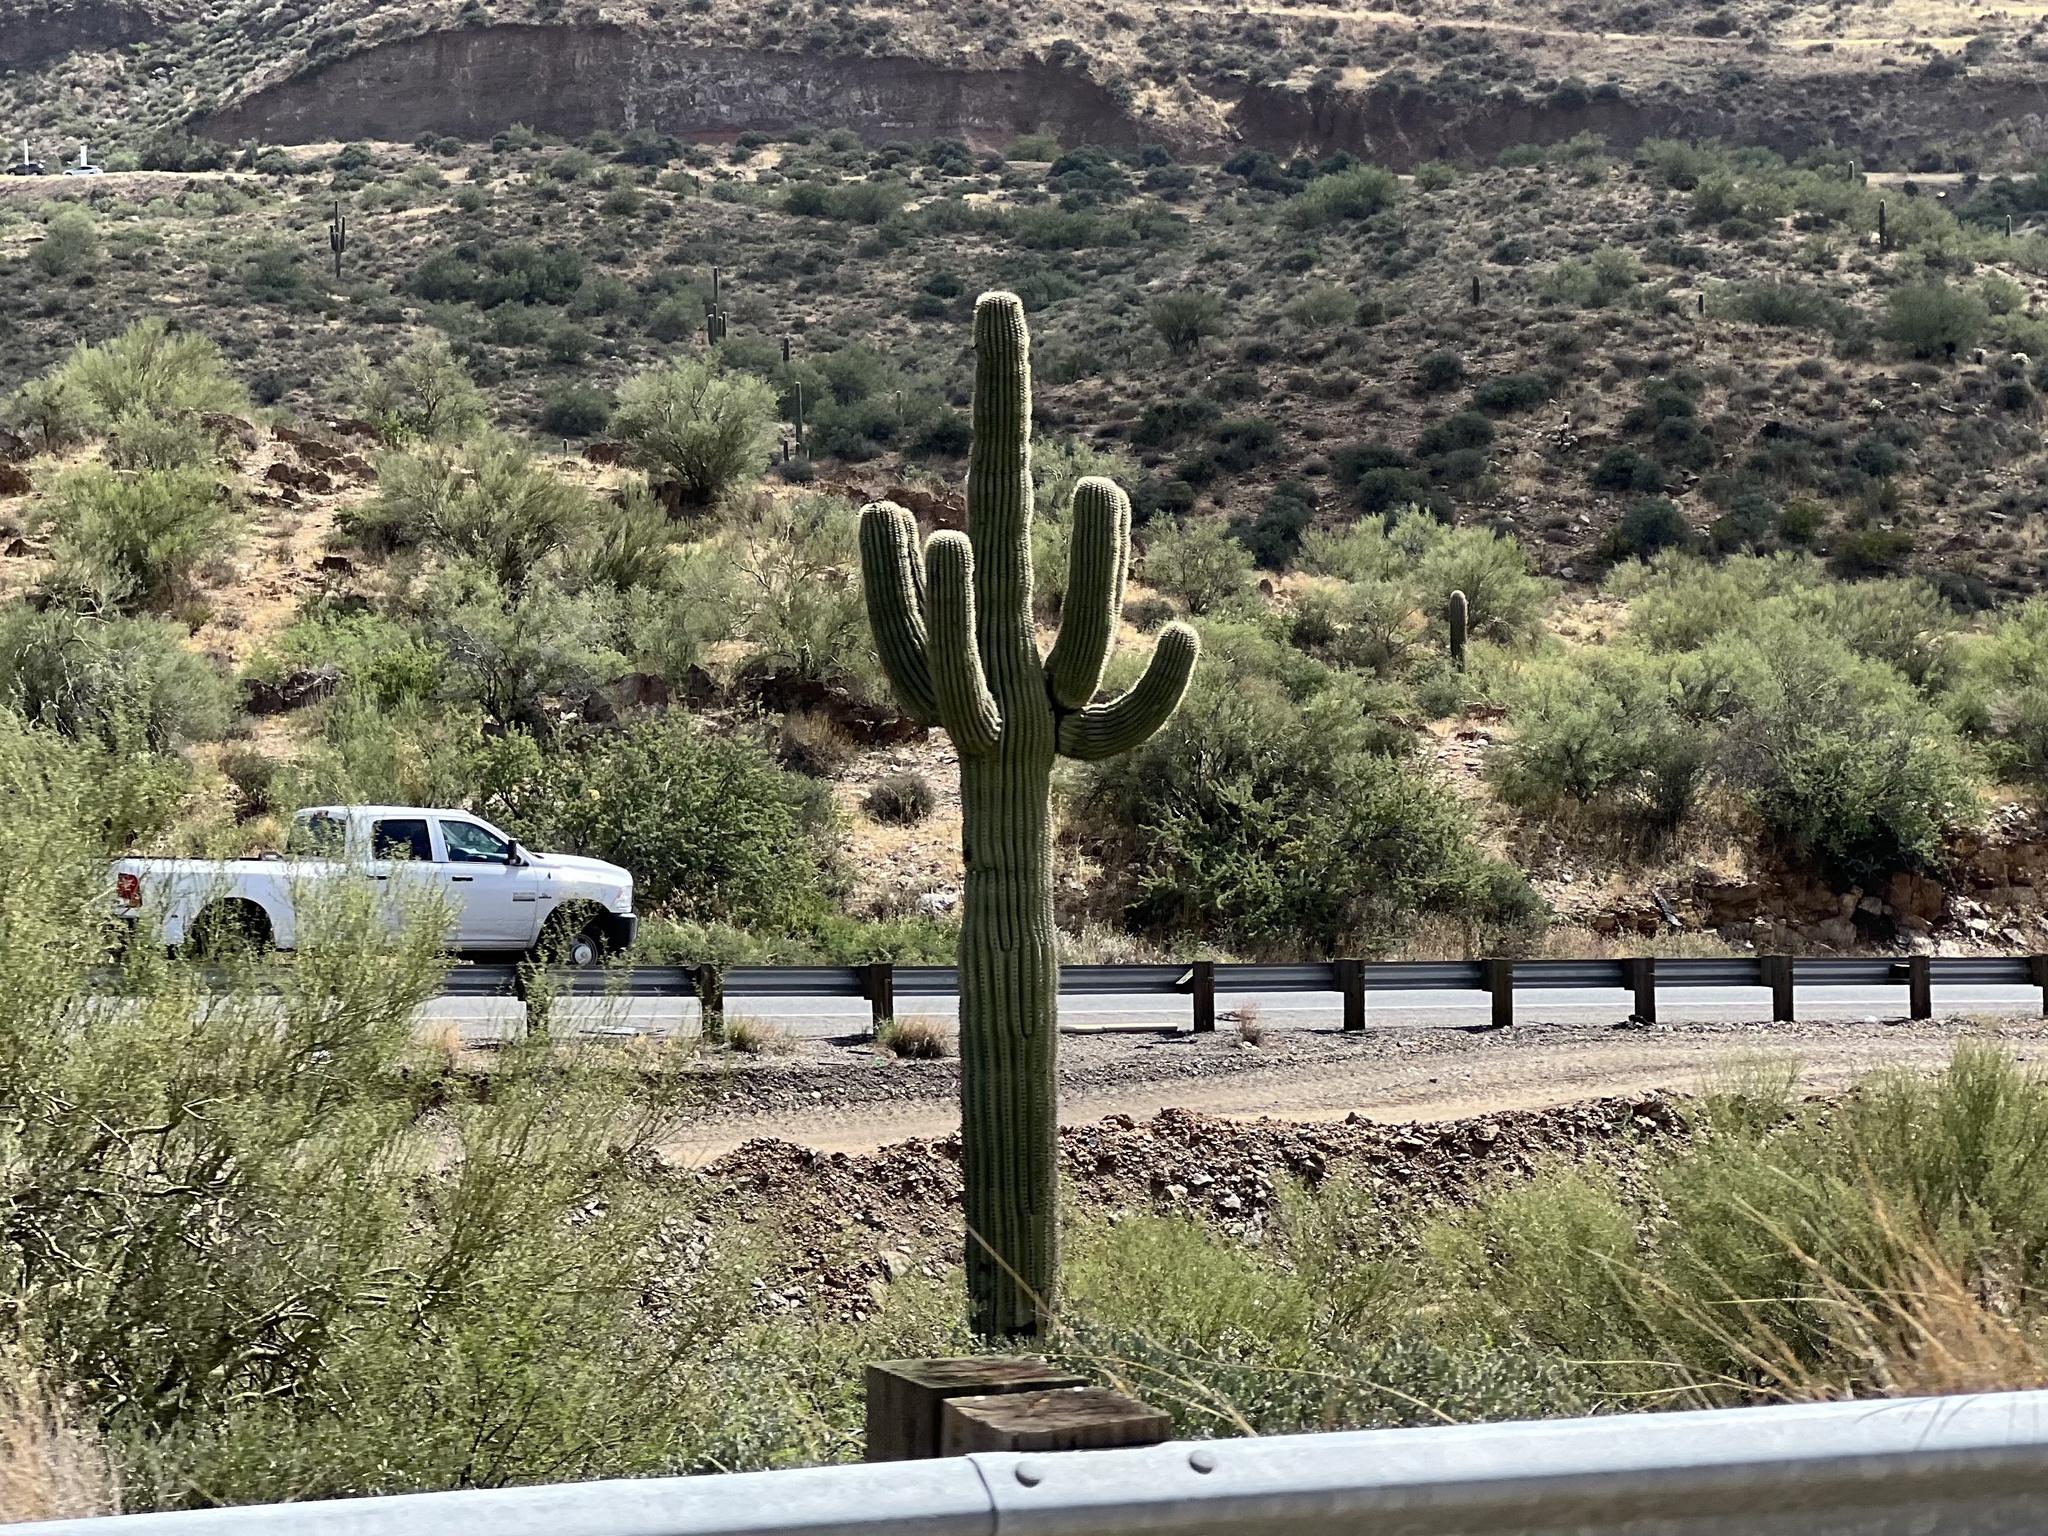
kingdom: Plantae
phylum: Tracheophyta
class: Magnoliopsida
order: Caryophyllales
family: Cactaceae
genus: Carnegiea
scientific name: Carnegiea gigantea
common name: Saguaro
